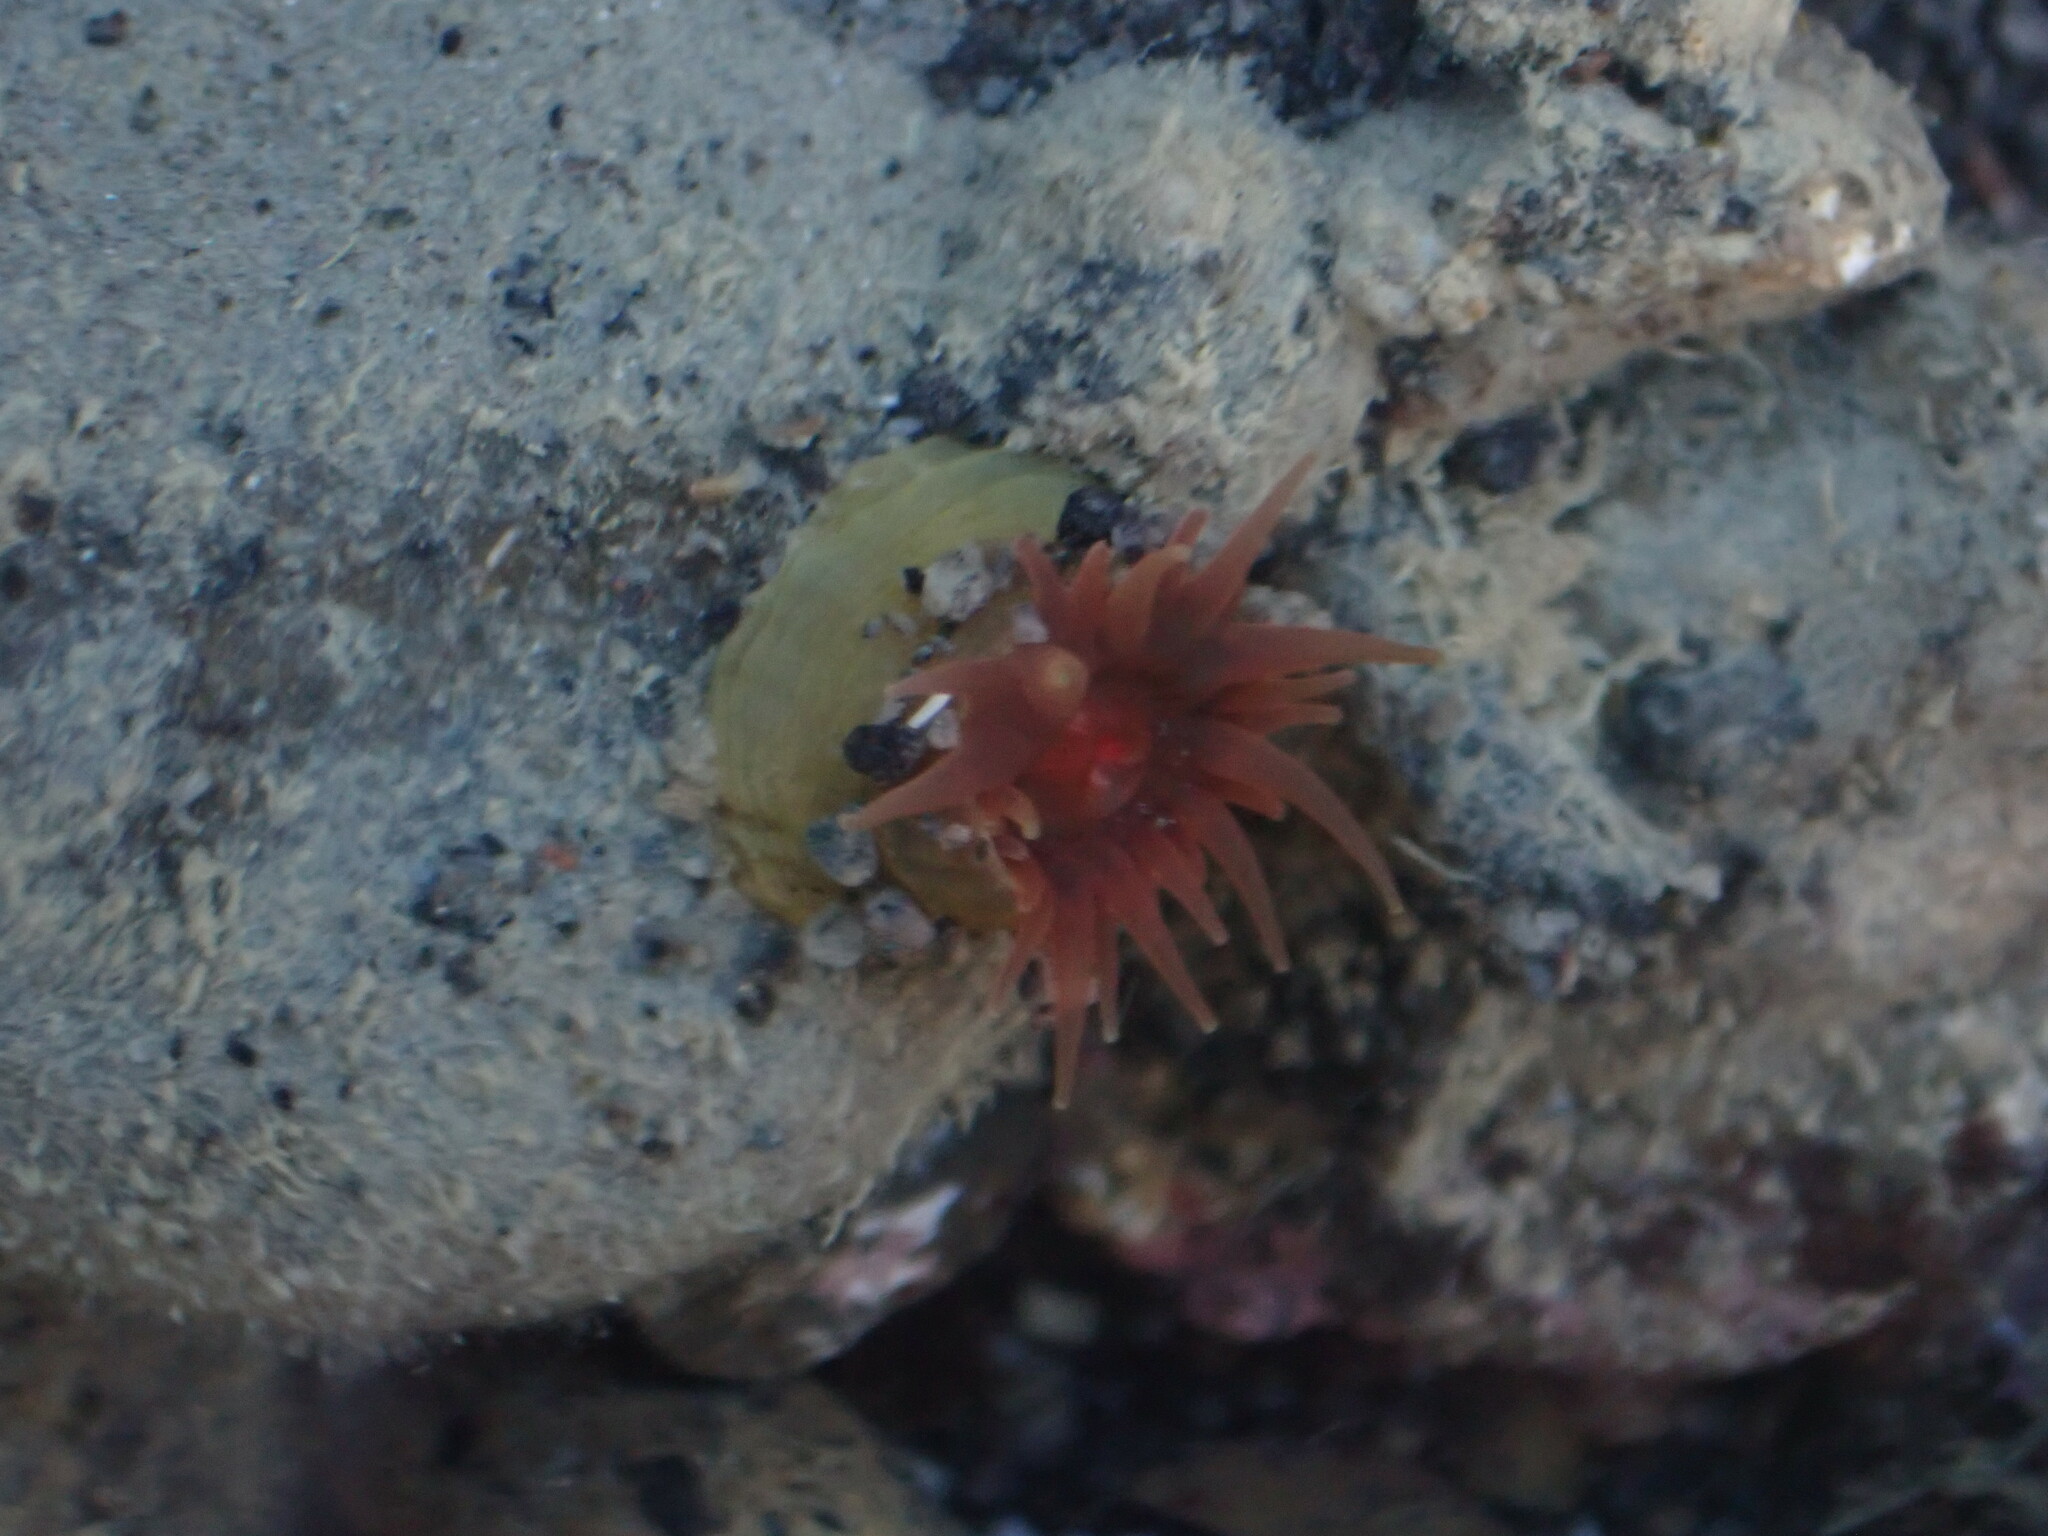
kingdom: Animalia
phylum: Cnidaria
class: Anthozoa
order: Actiniaria
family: Actiniidae
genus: Isactinia
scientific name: Isactinia olivacea
